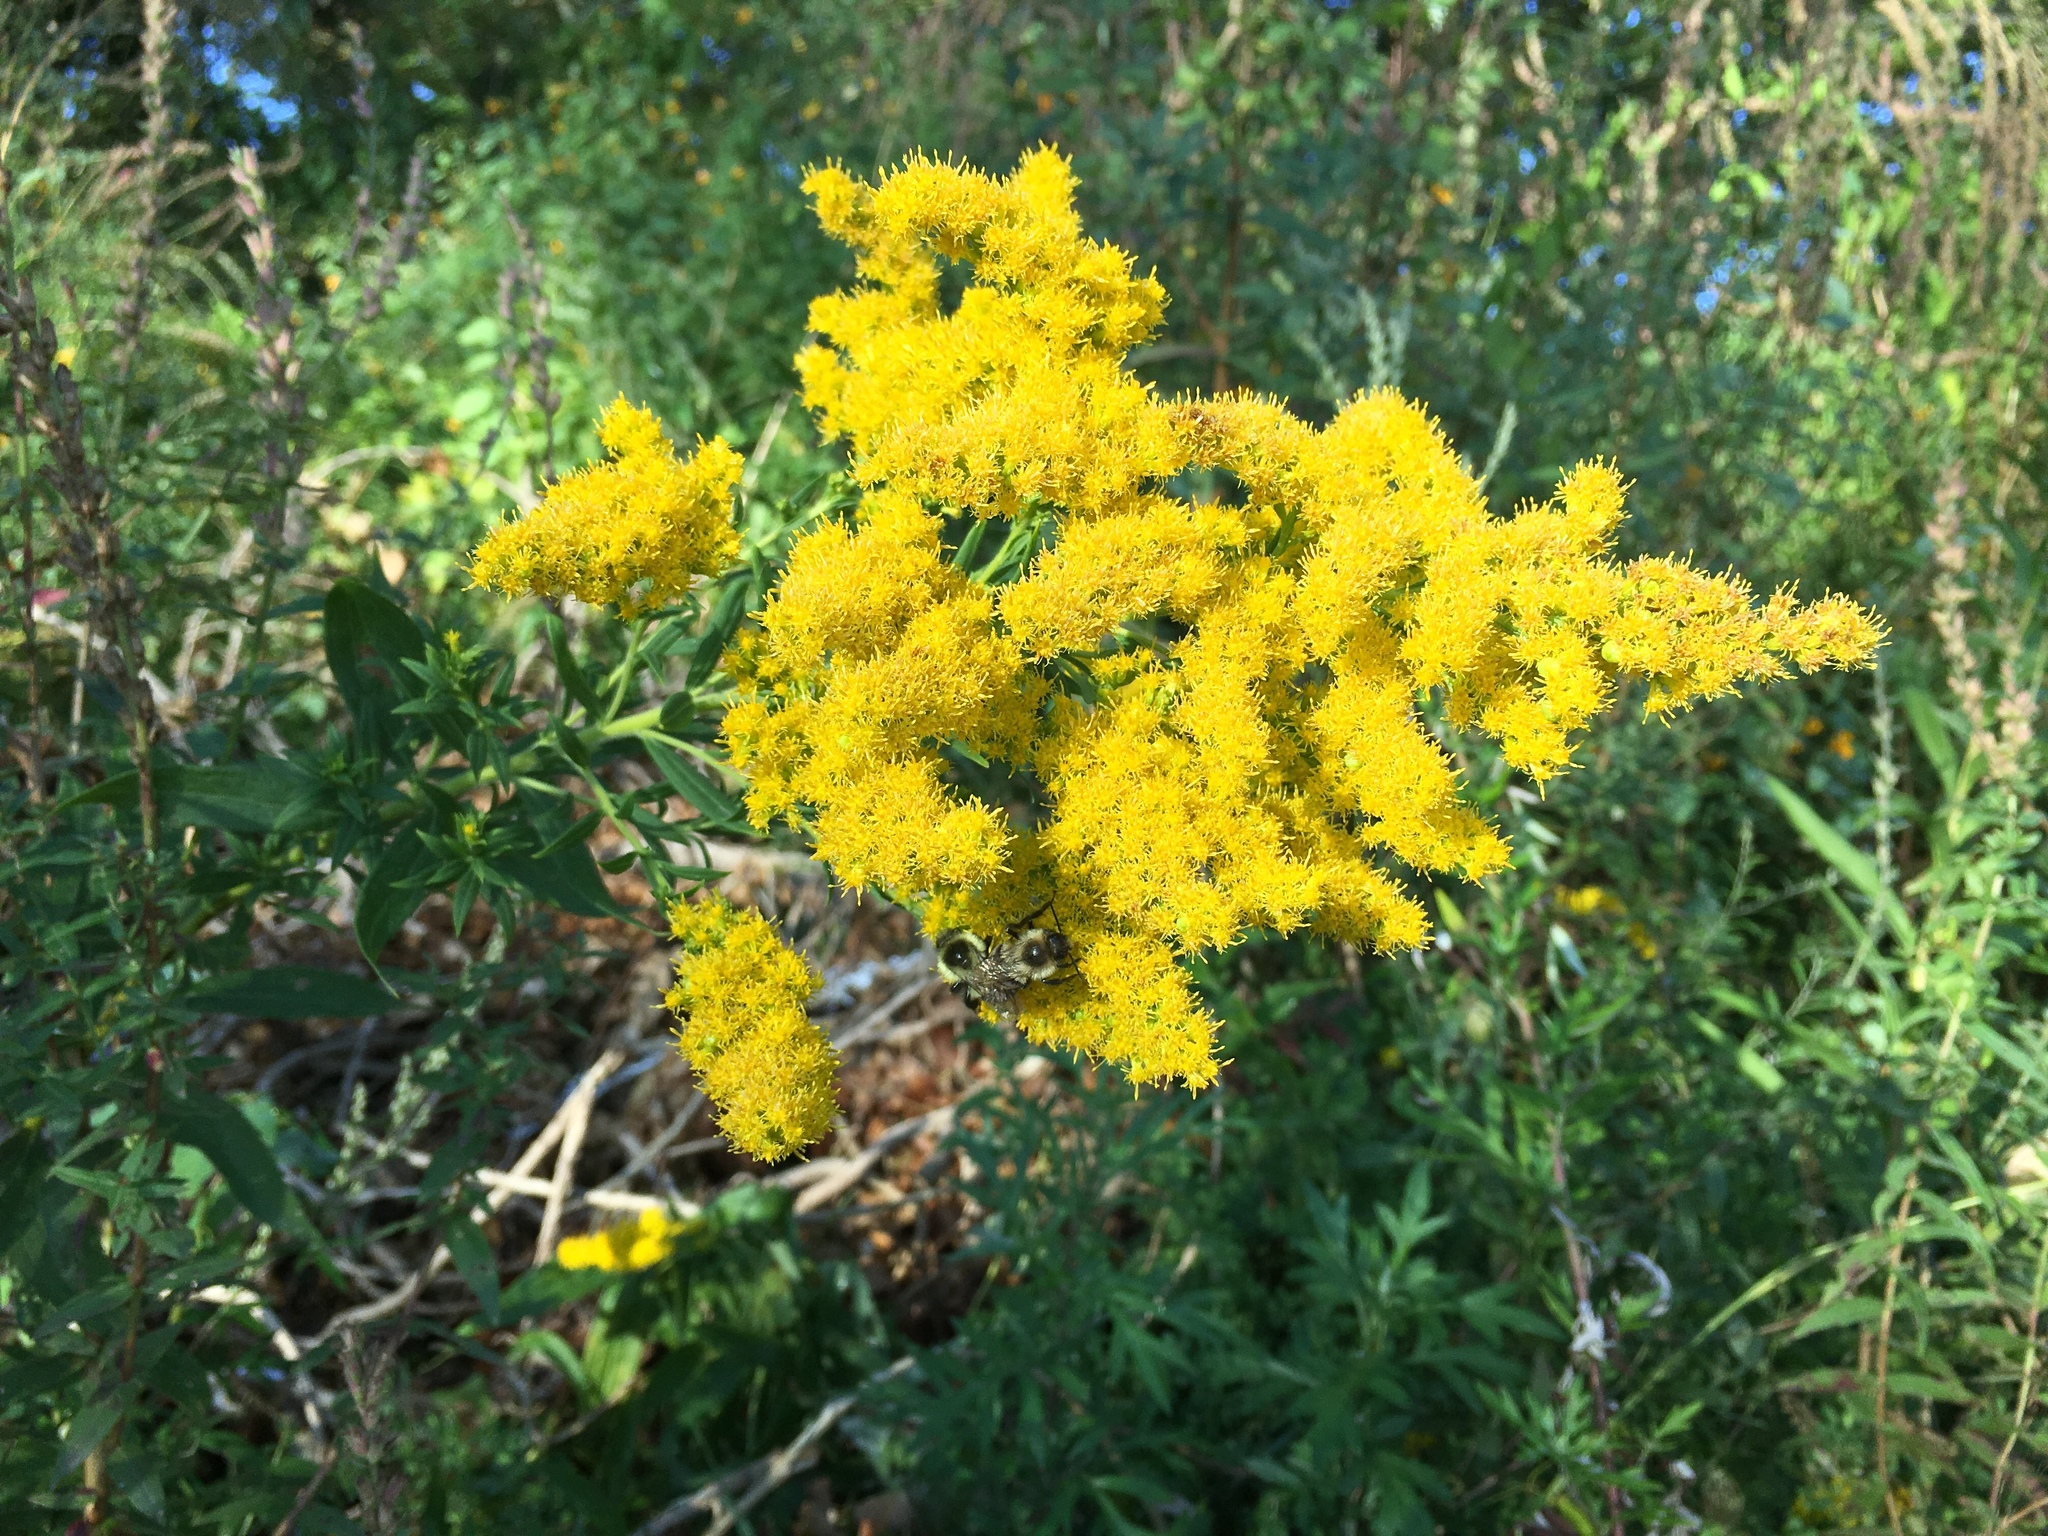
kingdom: Plantae
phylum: Tracheophyta
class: Magnoliopsida
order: Asterales
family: Asteraceae
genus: Solidago
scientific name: Solidago gigantea
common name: Giant goldenrod
